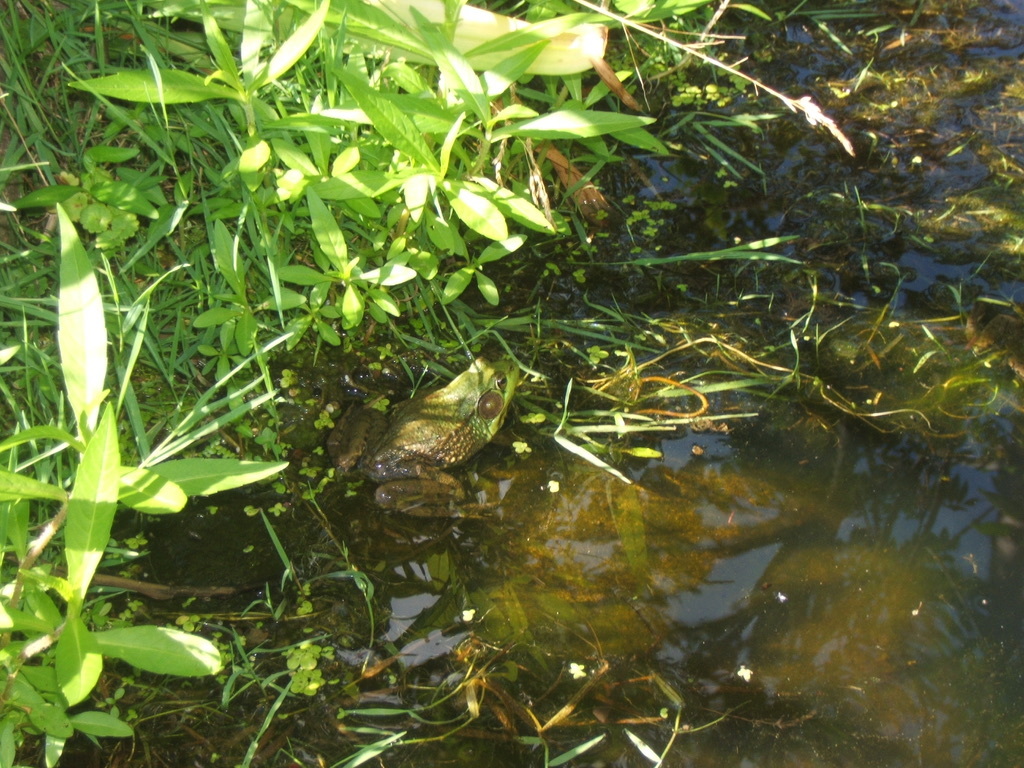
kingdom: Animalia
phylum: Chordata
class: Amphibia
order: Anura
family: Ranidae
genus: Lithobates
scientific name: Lithobates clamitans
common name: Green frog
